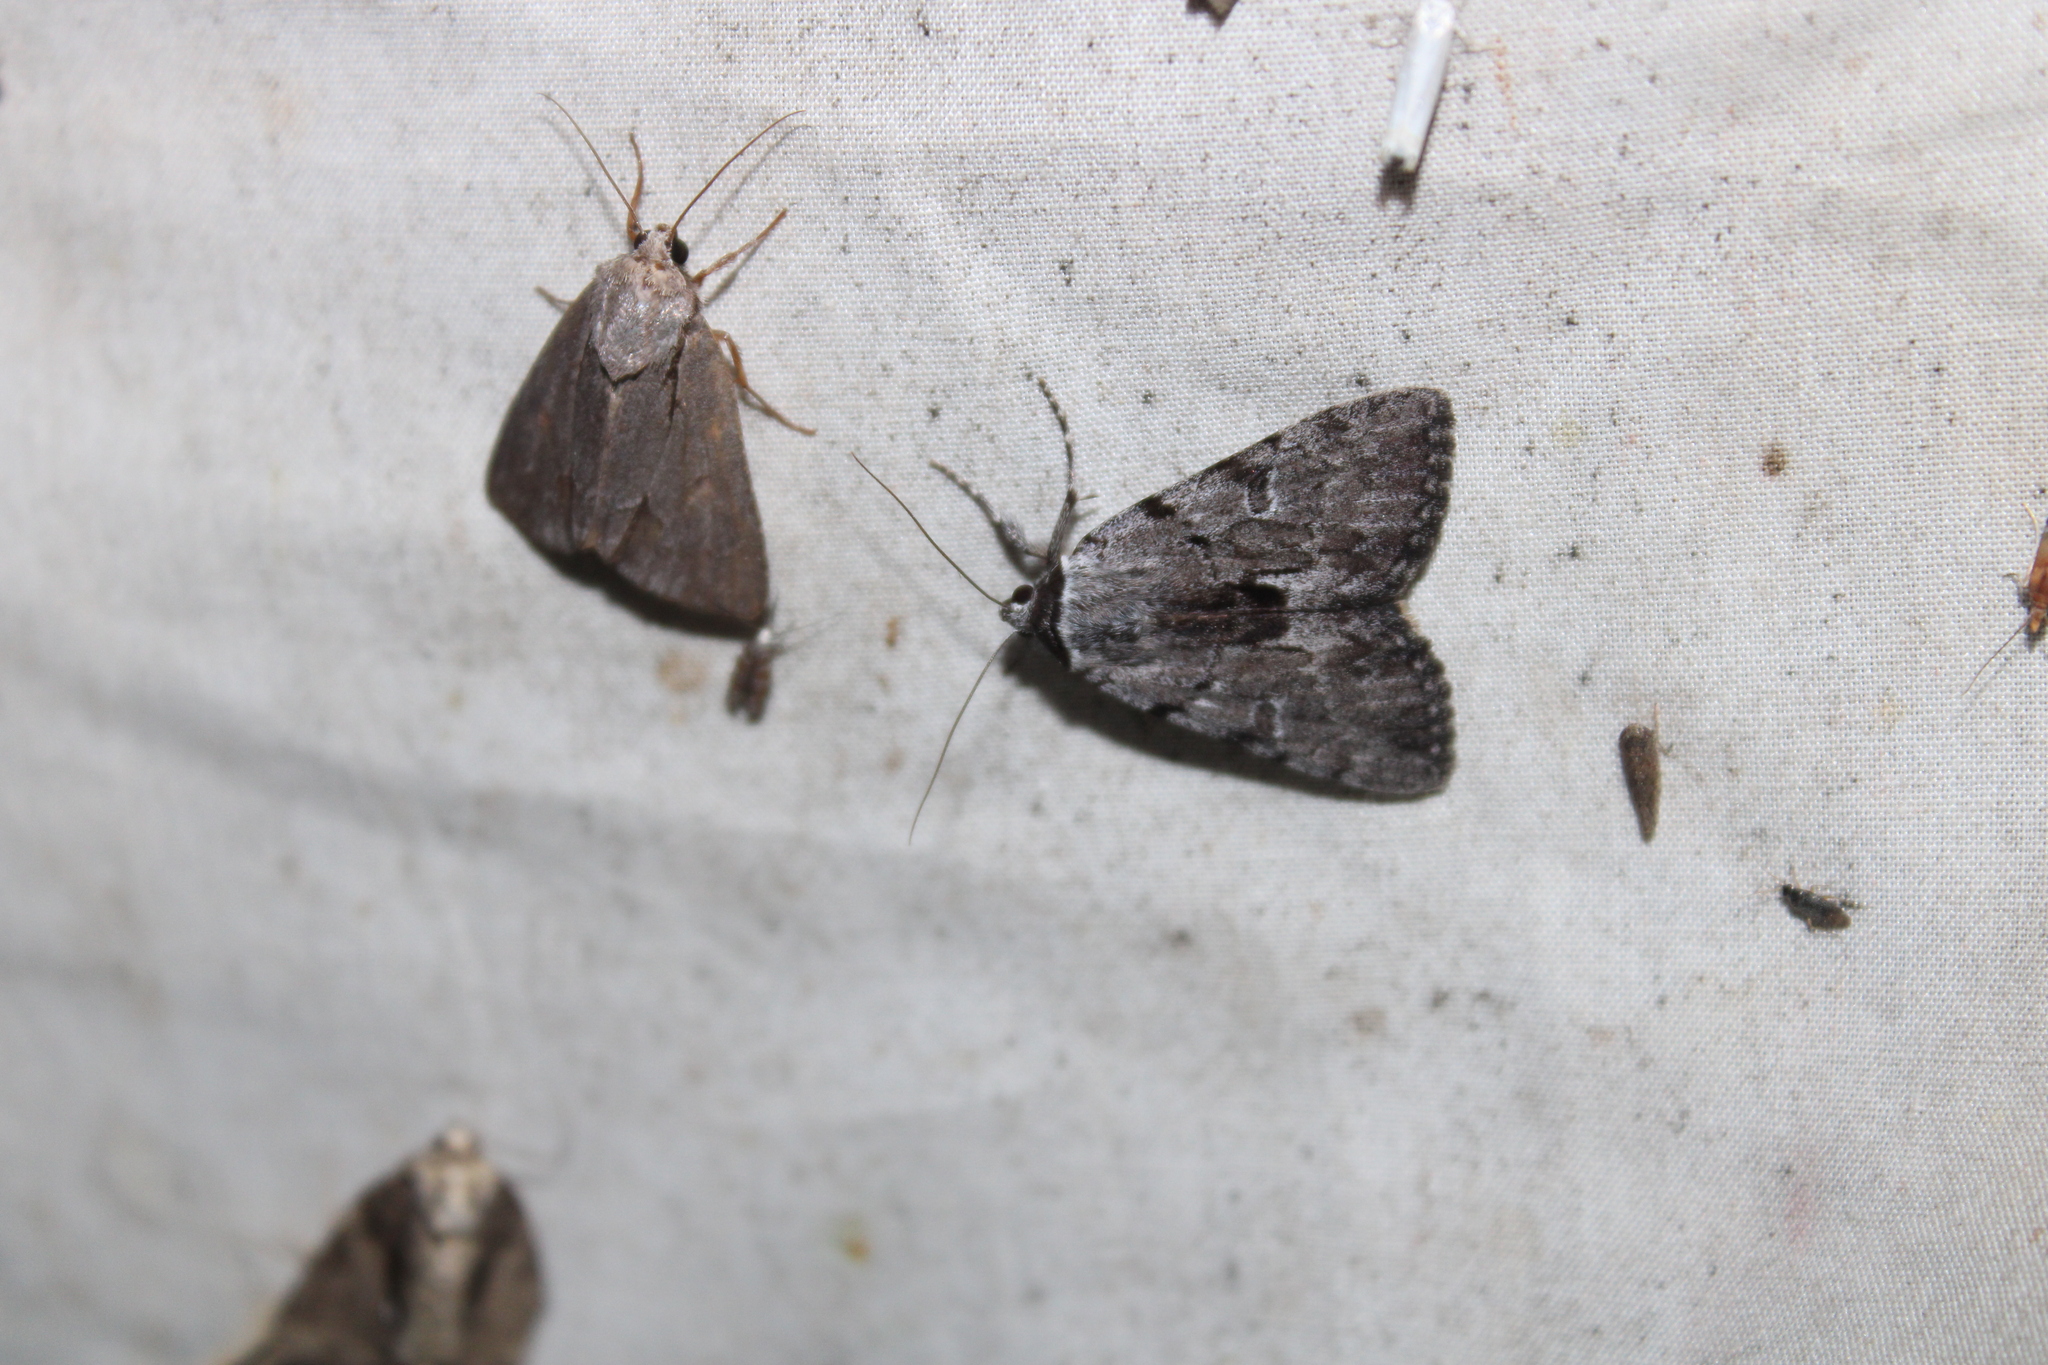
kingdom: Animalia
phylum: Arthropoda
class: Insecta
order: Lepidoptera
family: Erebidae
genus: Catocala
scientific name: Catocala sordida
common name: Sordid underwing
